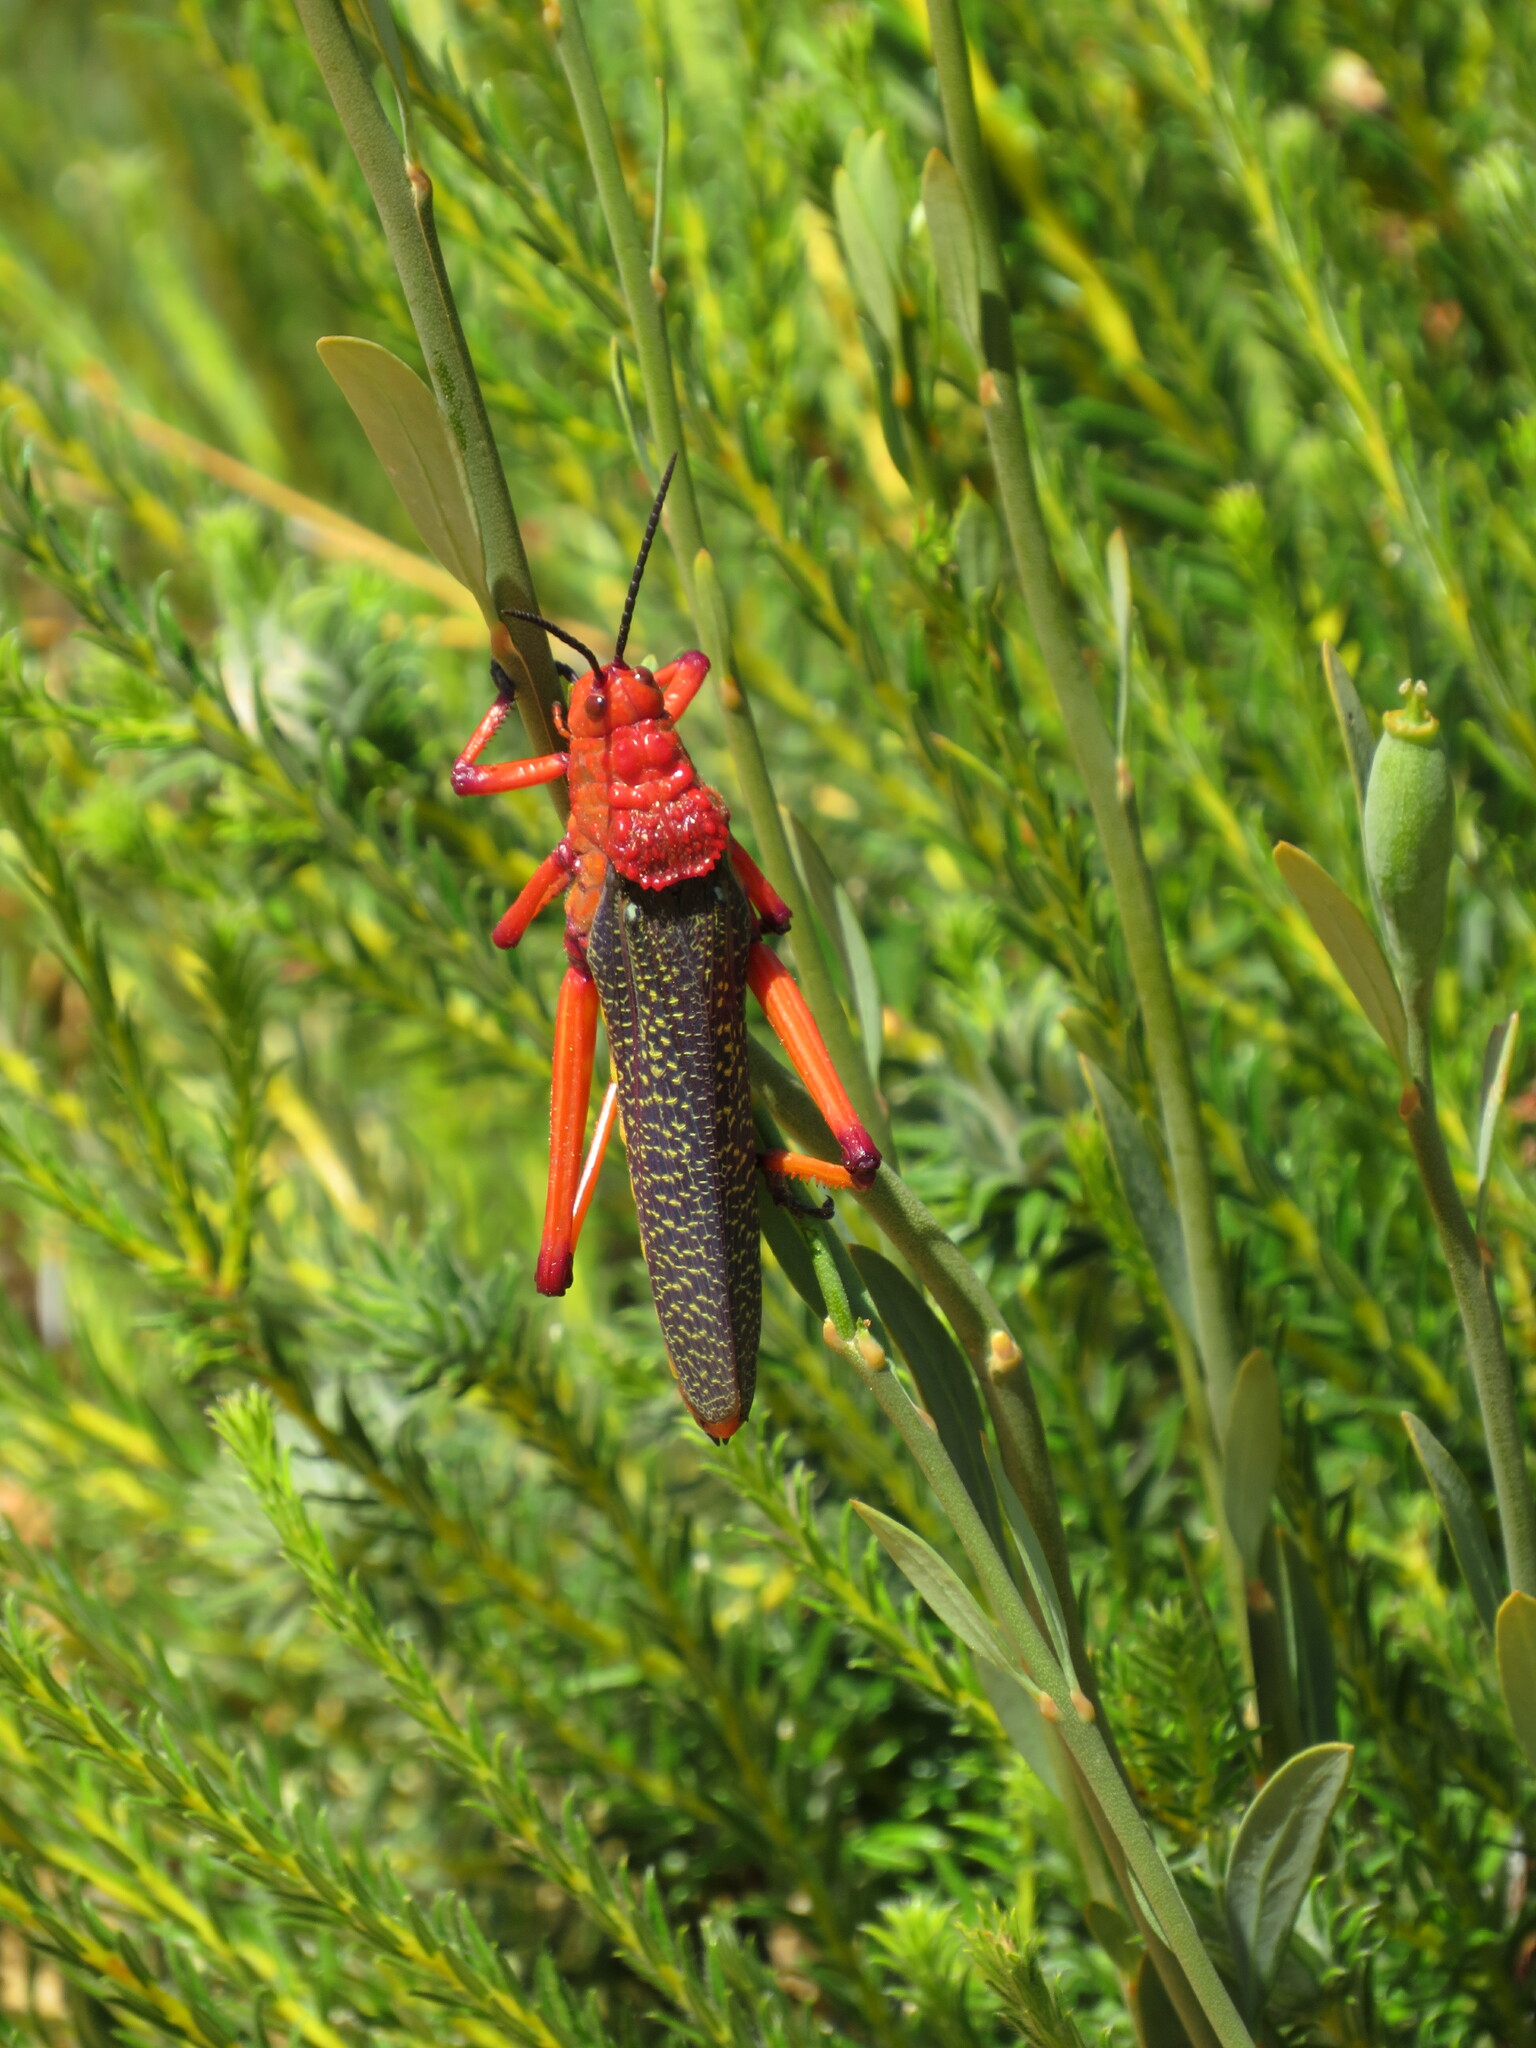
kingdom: Animalia
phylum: Arthropoda
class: Insecta
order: Orthoptera
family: Pyrgomorphidae
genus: Phymateus
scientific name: Phymateus morbillosus
